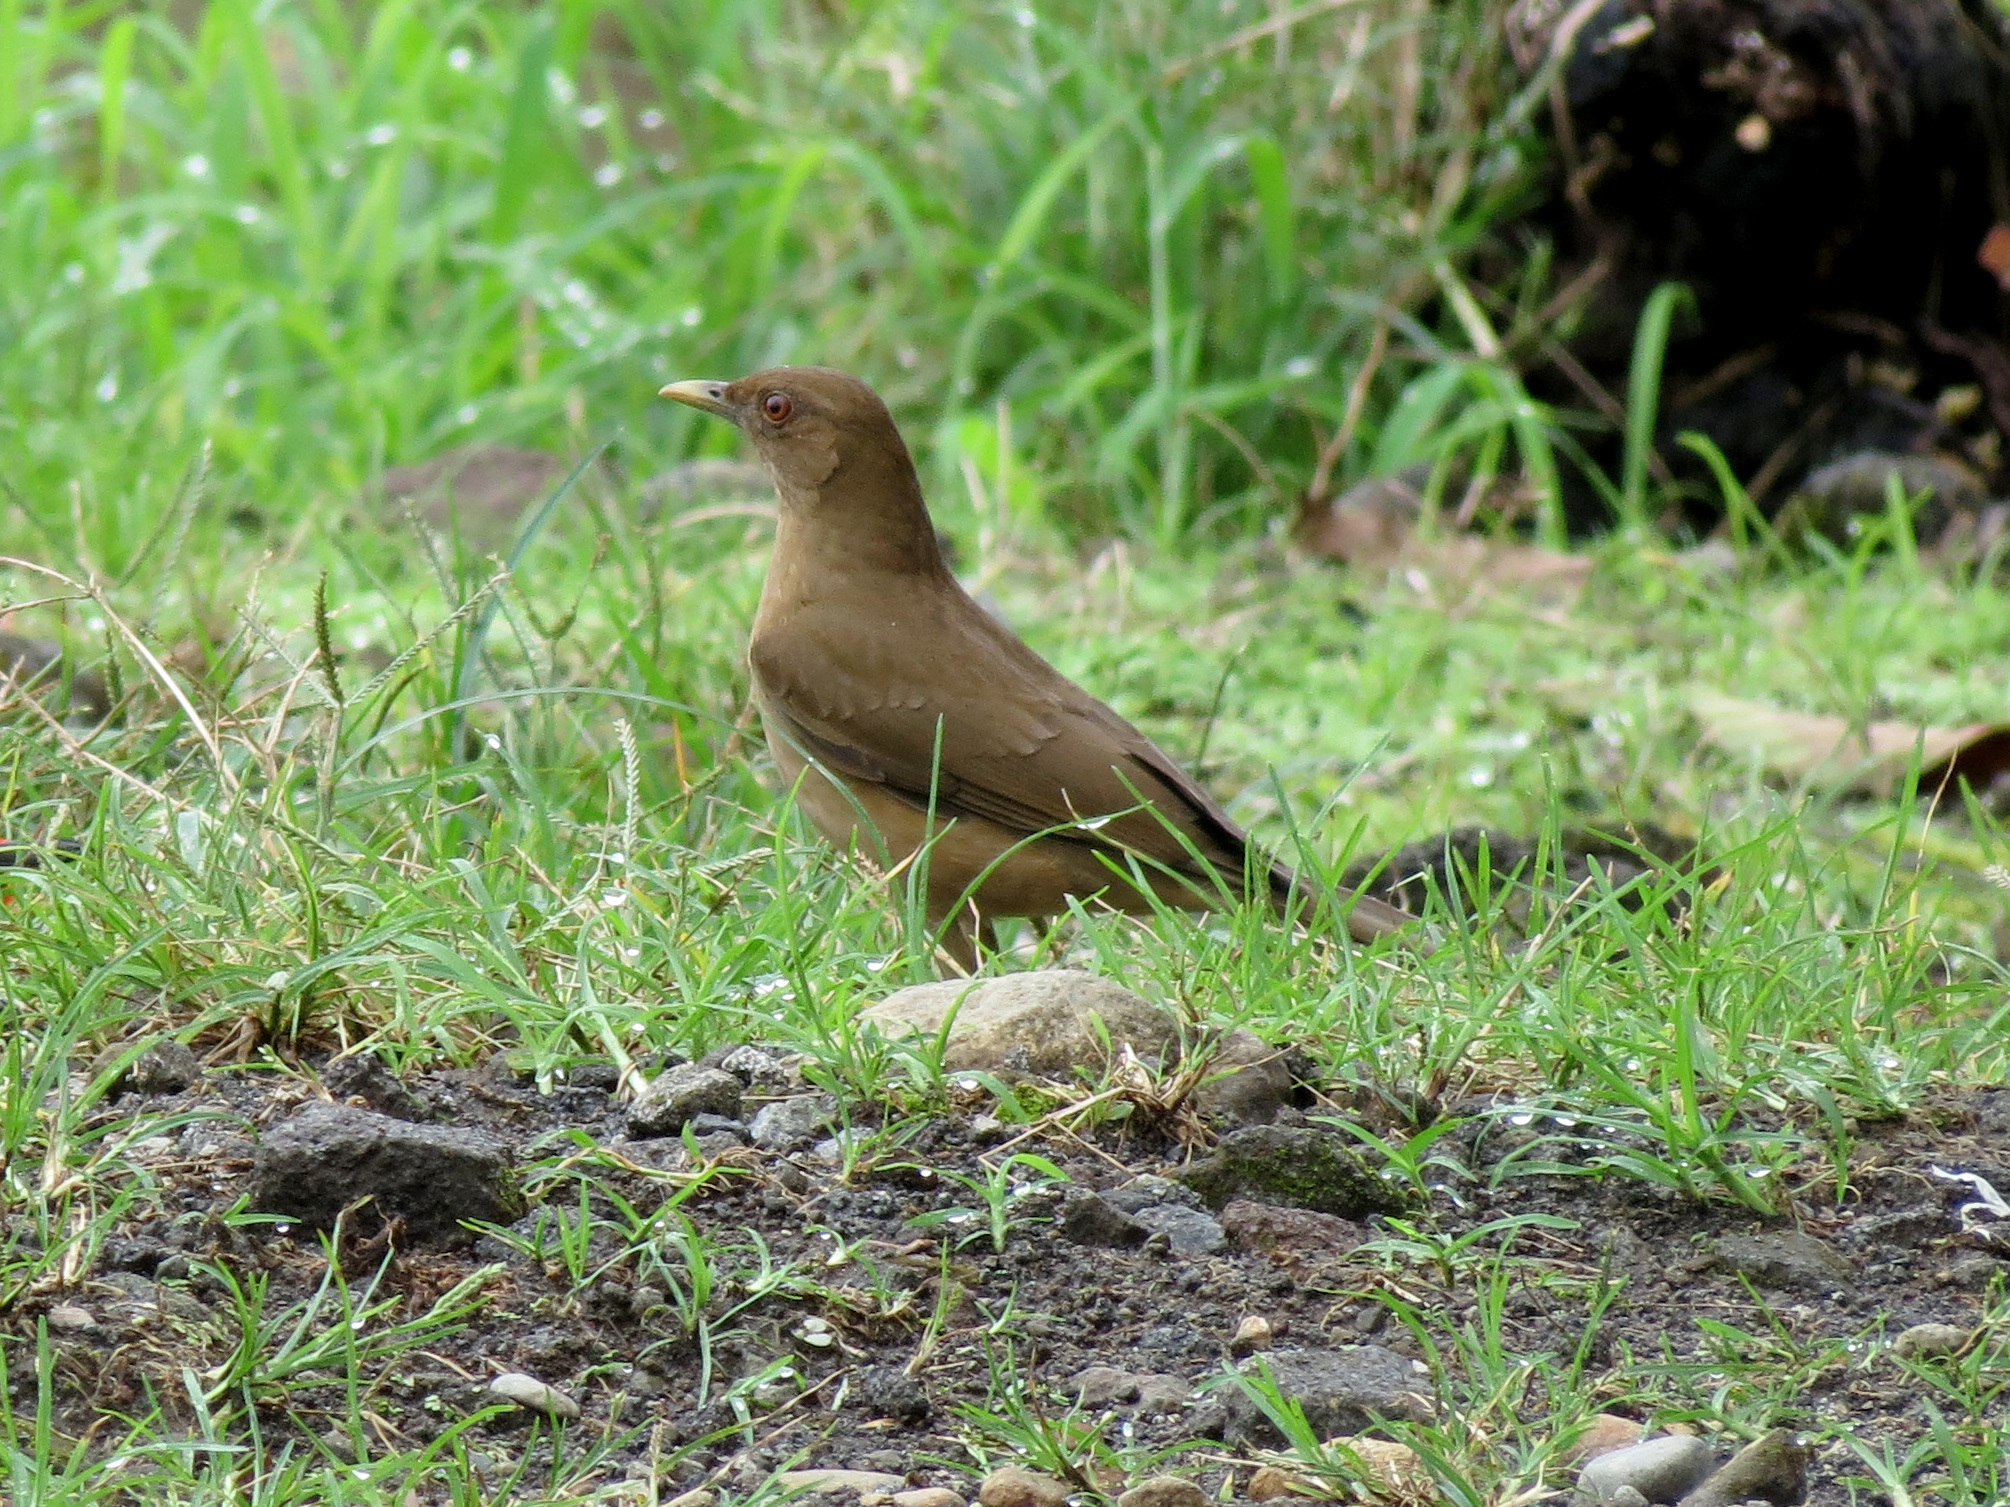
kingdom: Animalia
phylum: Chordata
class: Aves
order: Passeriformes
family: Turdidae
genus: Turdus
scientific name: Turdus grayi
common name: Clay-colored thrush
